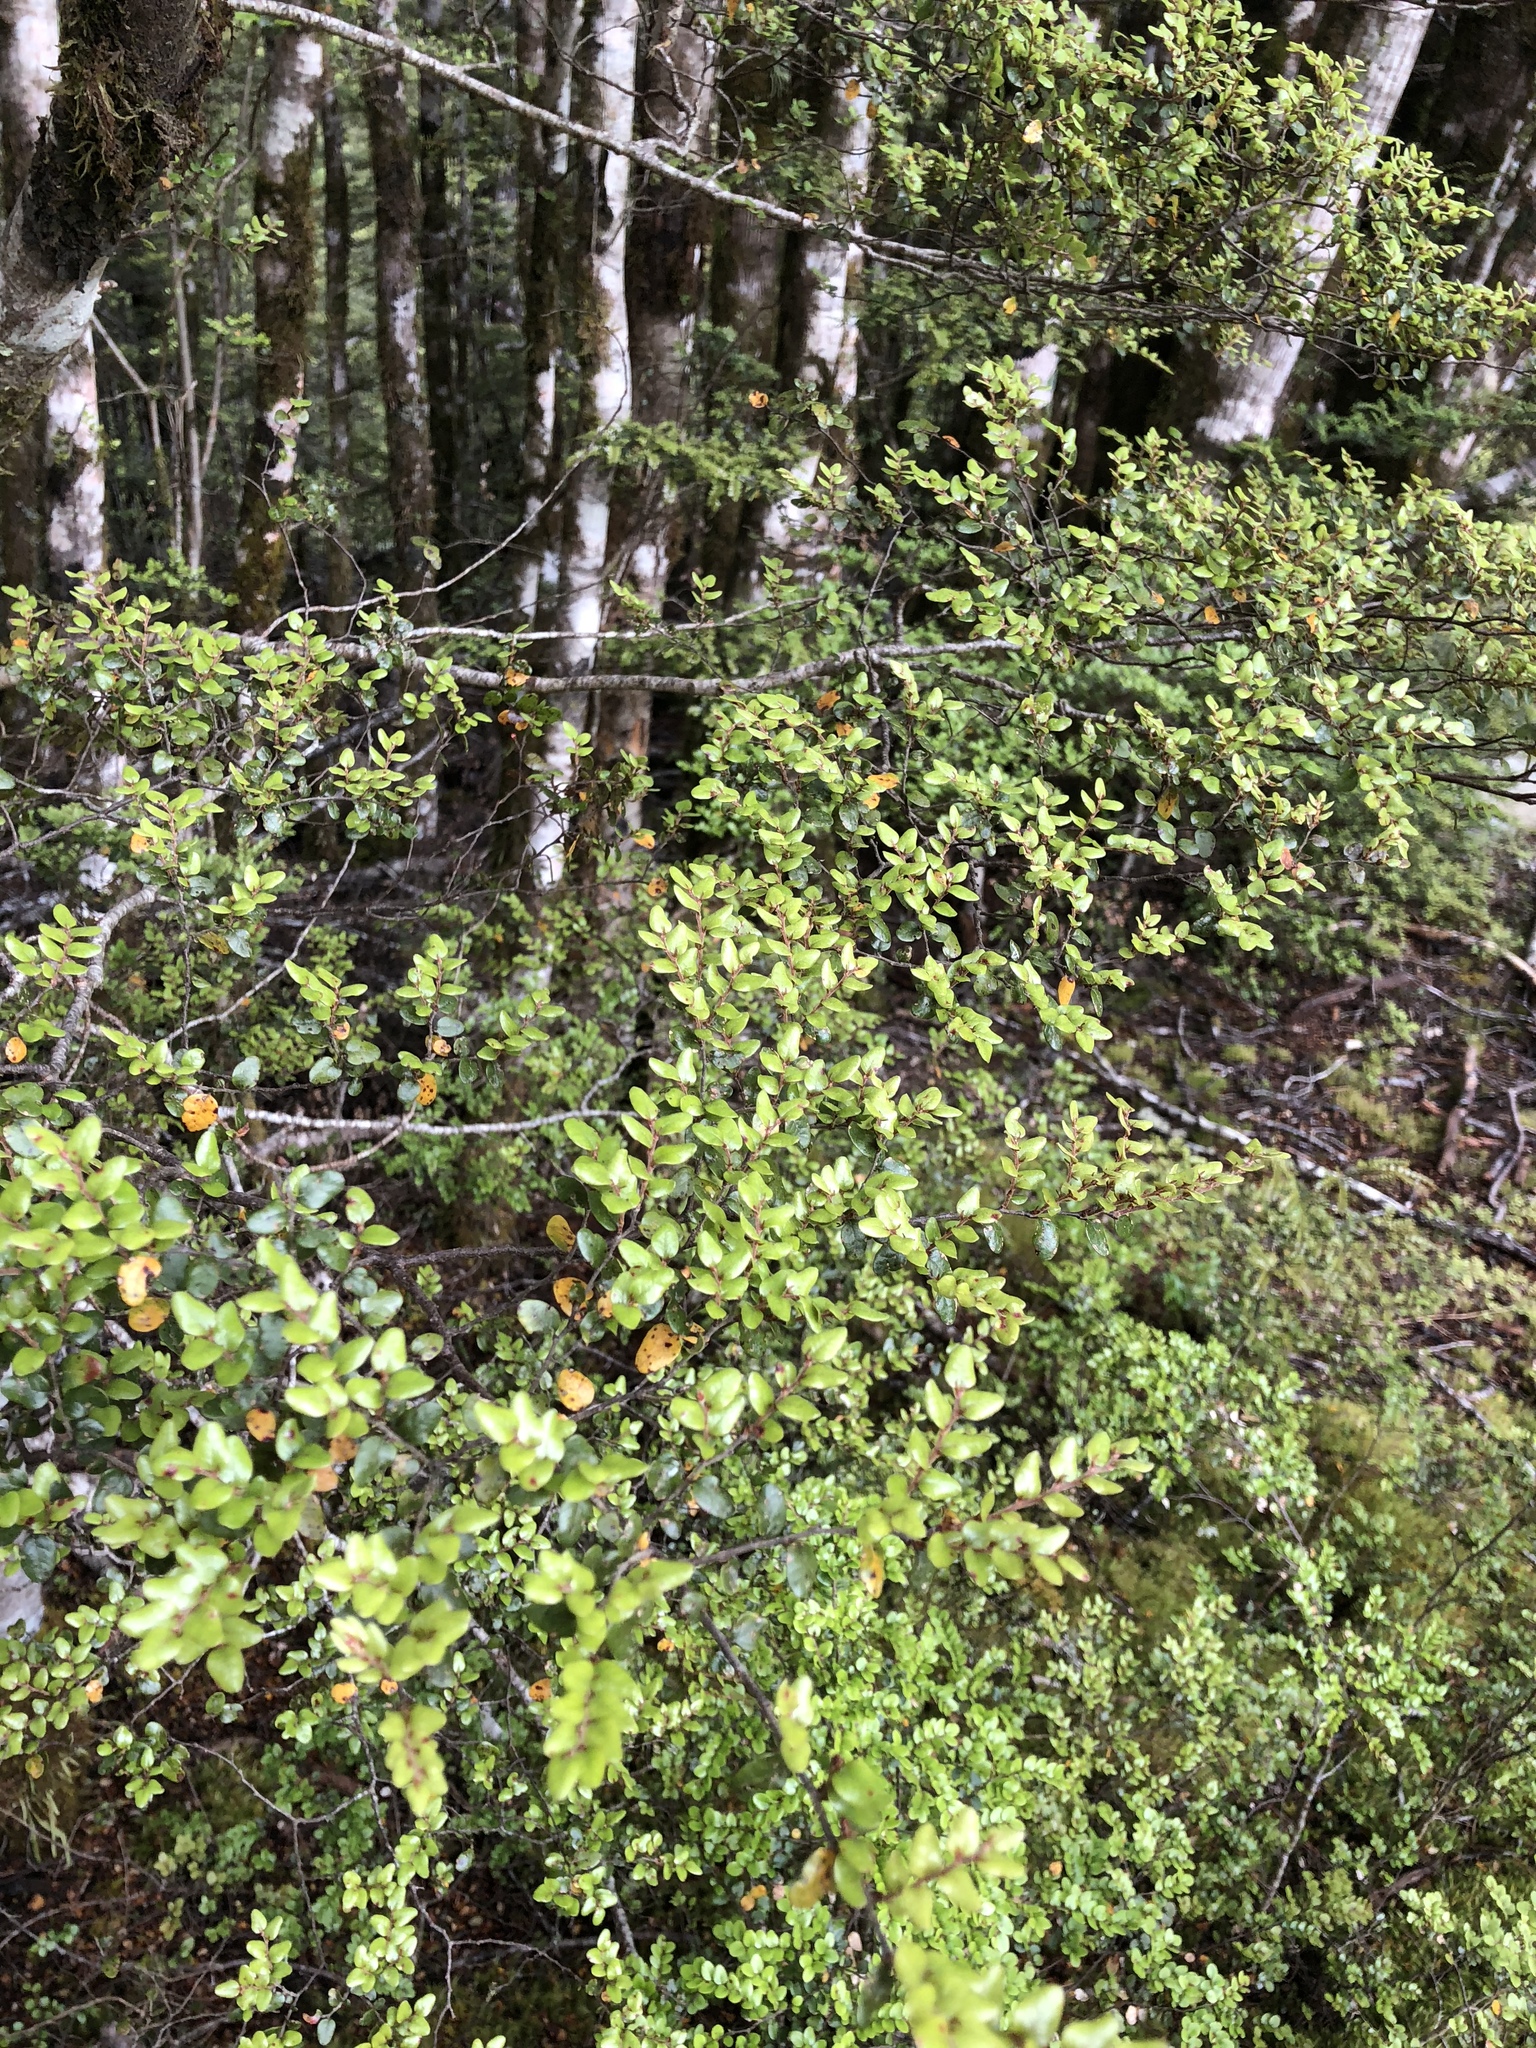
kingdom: Plantae
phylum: Tracheophyta
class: Magnoliopsida
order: Fagales
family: Nothofagaceae
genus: Nothofagus
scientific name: Nothofagus cliffortioides
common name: Mountain beech
